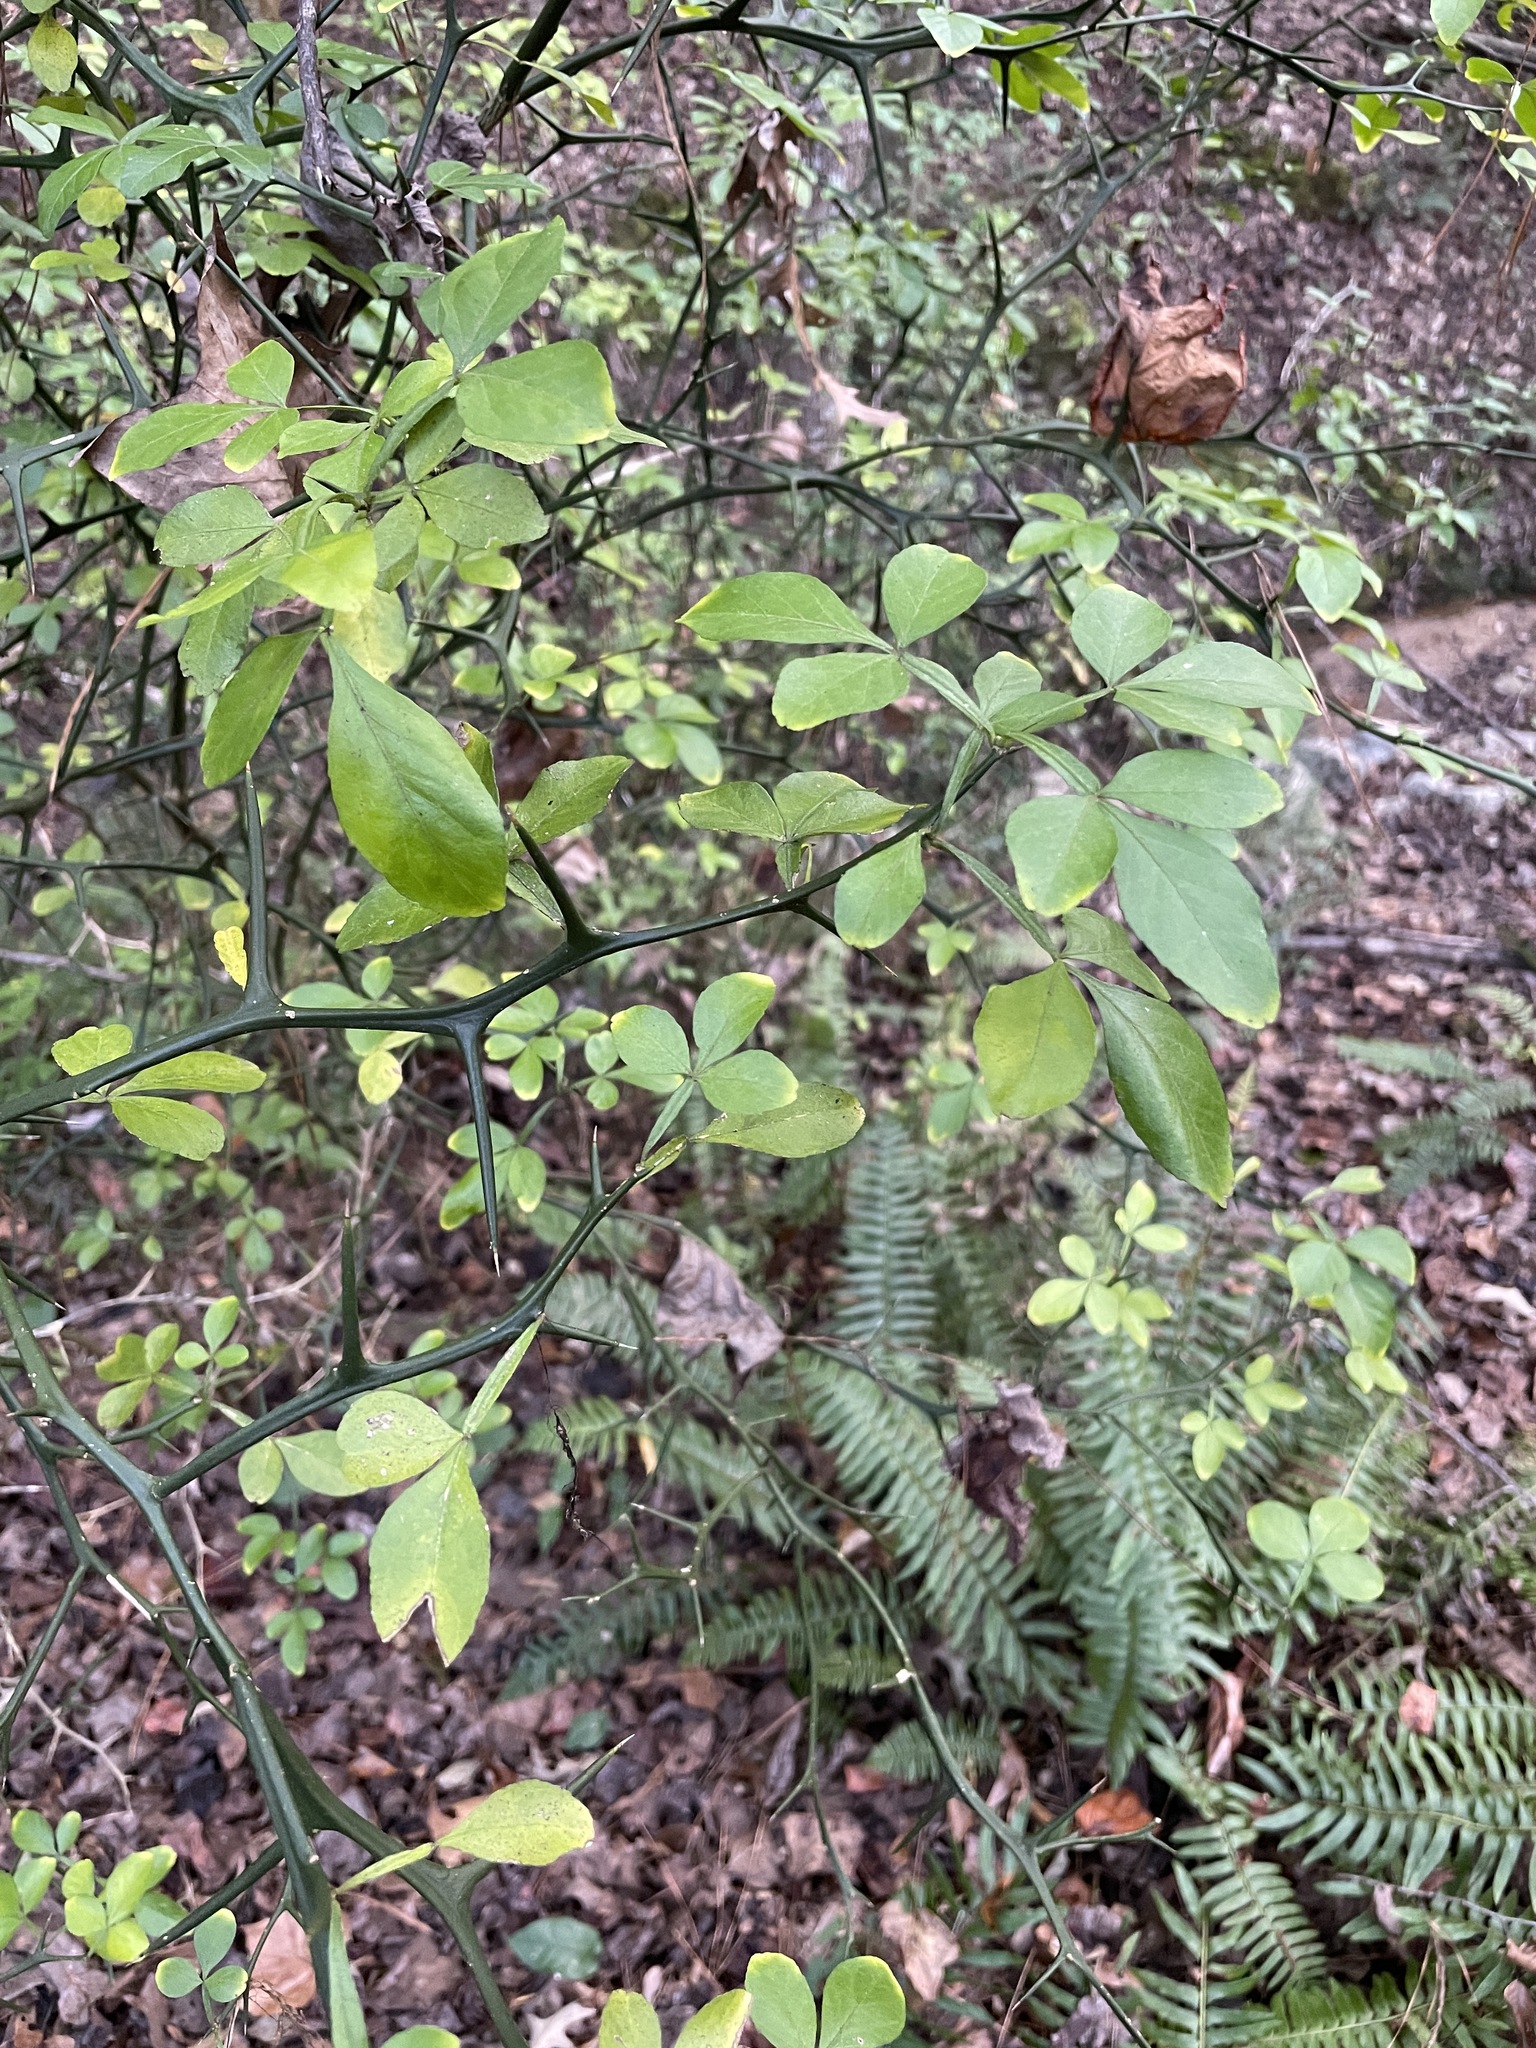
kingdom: Plantae
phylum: Tracheophyta
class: Magnoliopsida
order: Sapindales
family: Rutaceae
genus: Citrus
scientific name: Citrus trifoliata
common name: Japanese bitter-orange
